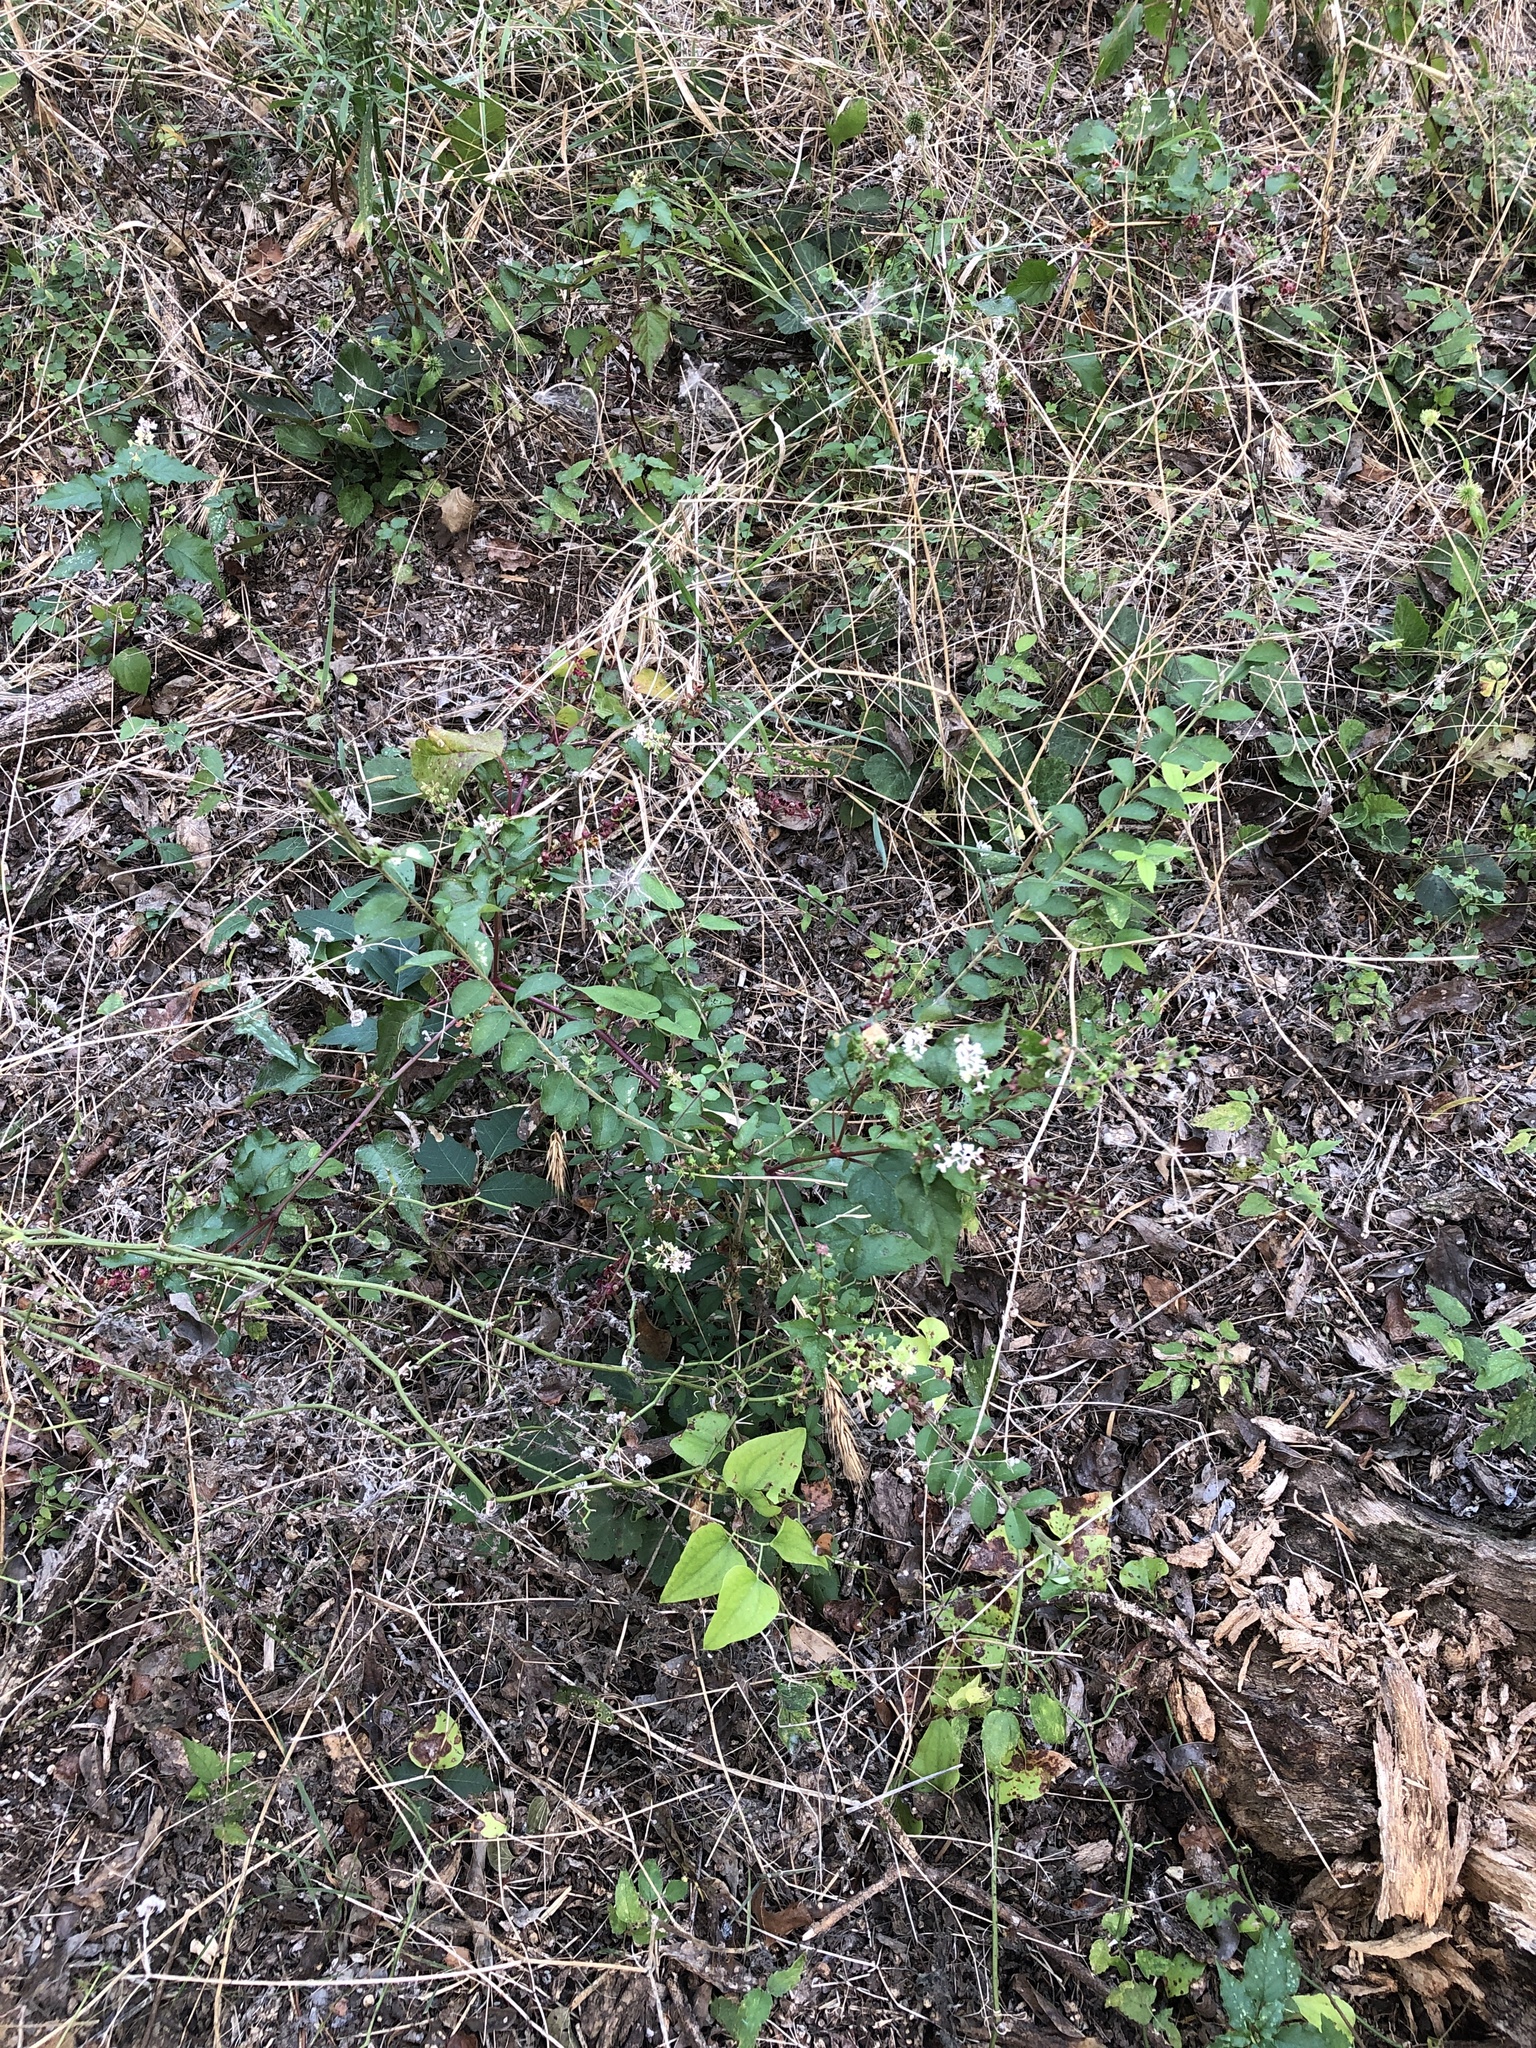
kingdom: Plantae
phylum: Tracheophyta
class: Magnoliopsida
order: Caryophyllales
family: Phytolaccaceae
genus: Rivina
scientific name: Rivina humilis
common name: Rougeplant
